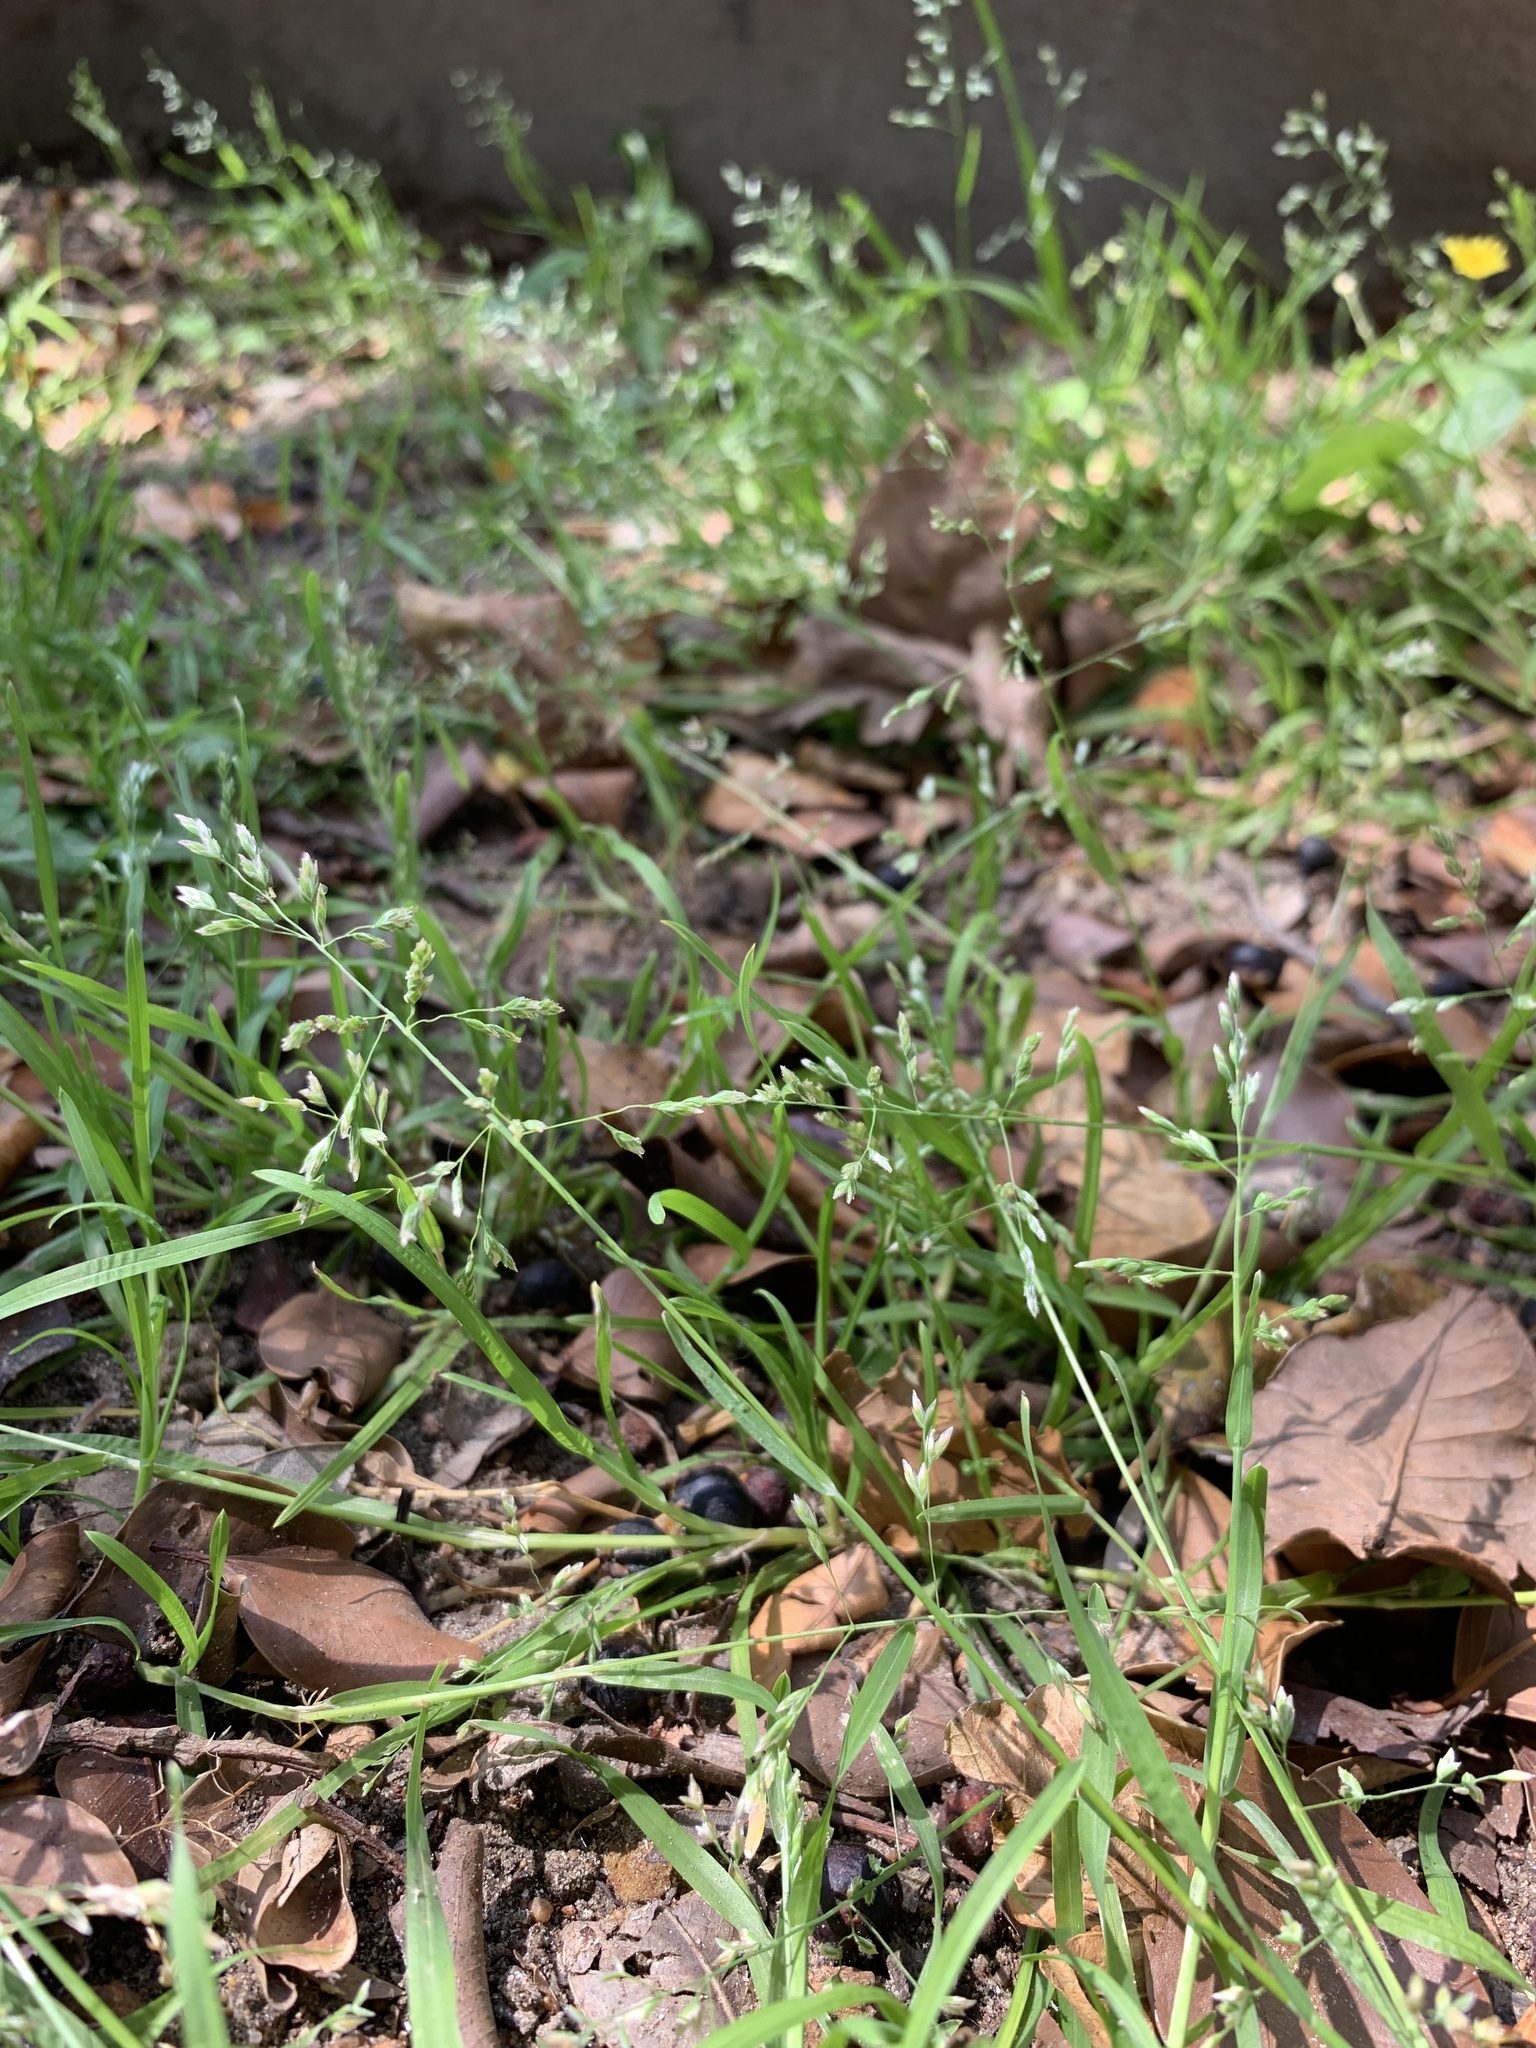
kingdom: Plantae
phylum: Tracheophyta
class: Liliopsida
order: Poales
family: Poaceae
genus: Poa
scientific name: Poa annua
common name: Annual bluegrass
